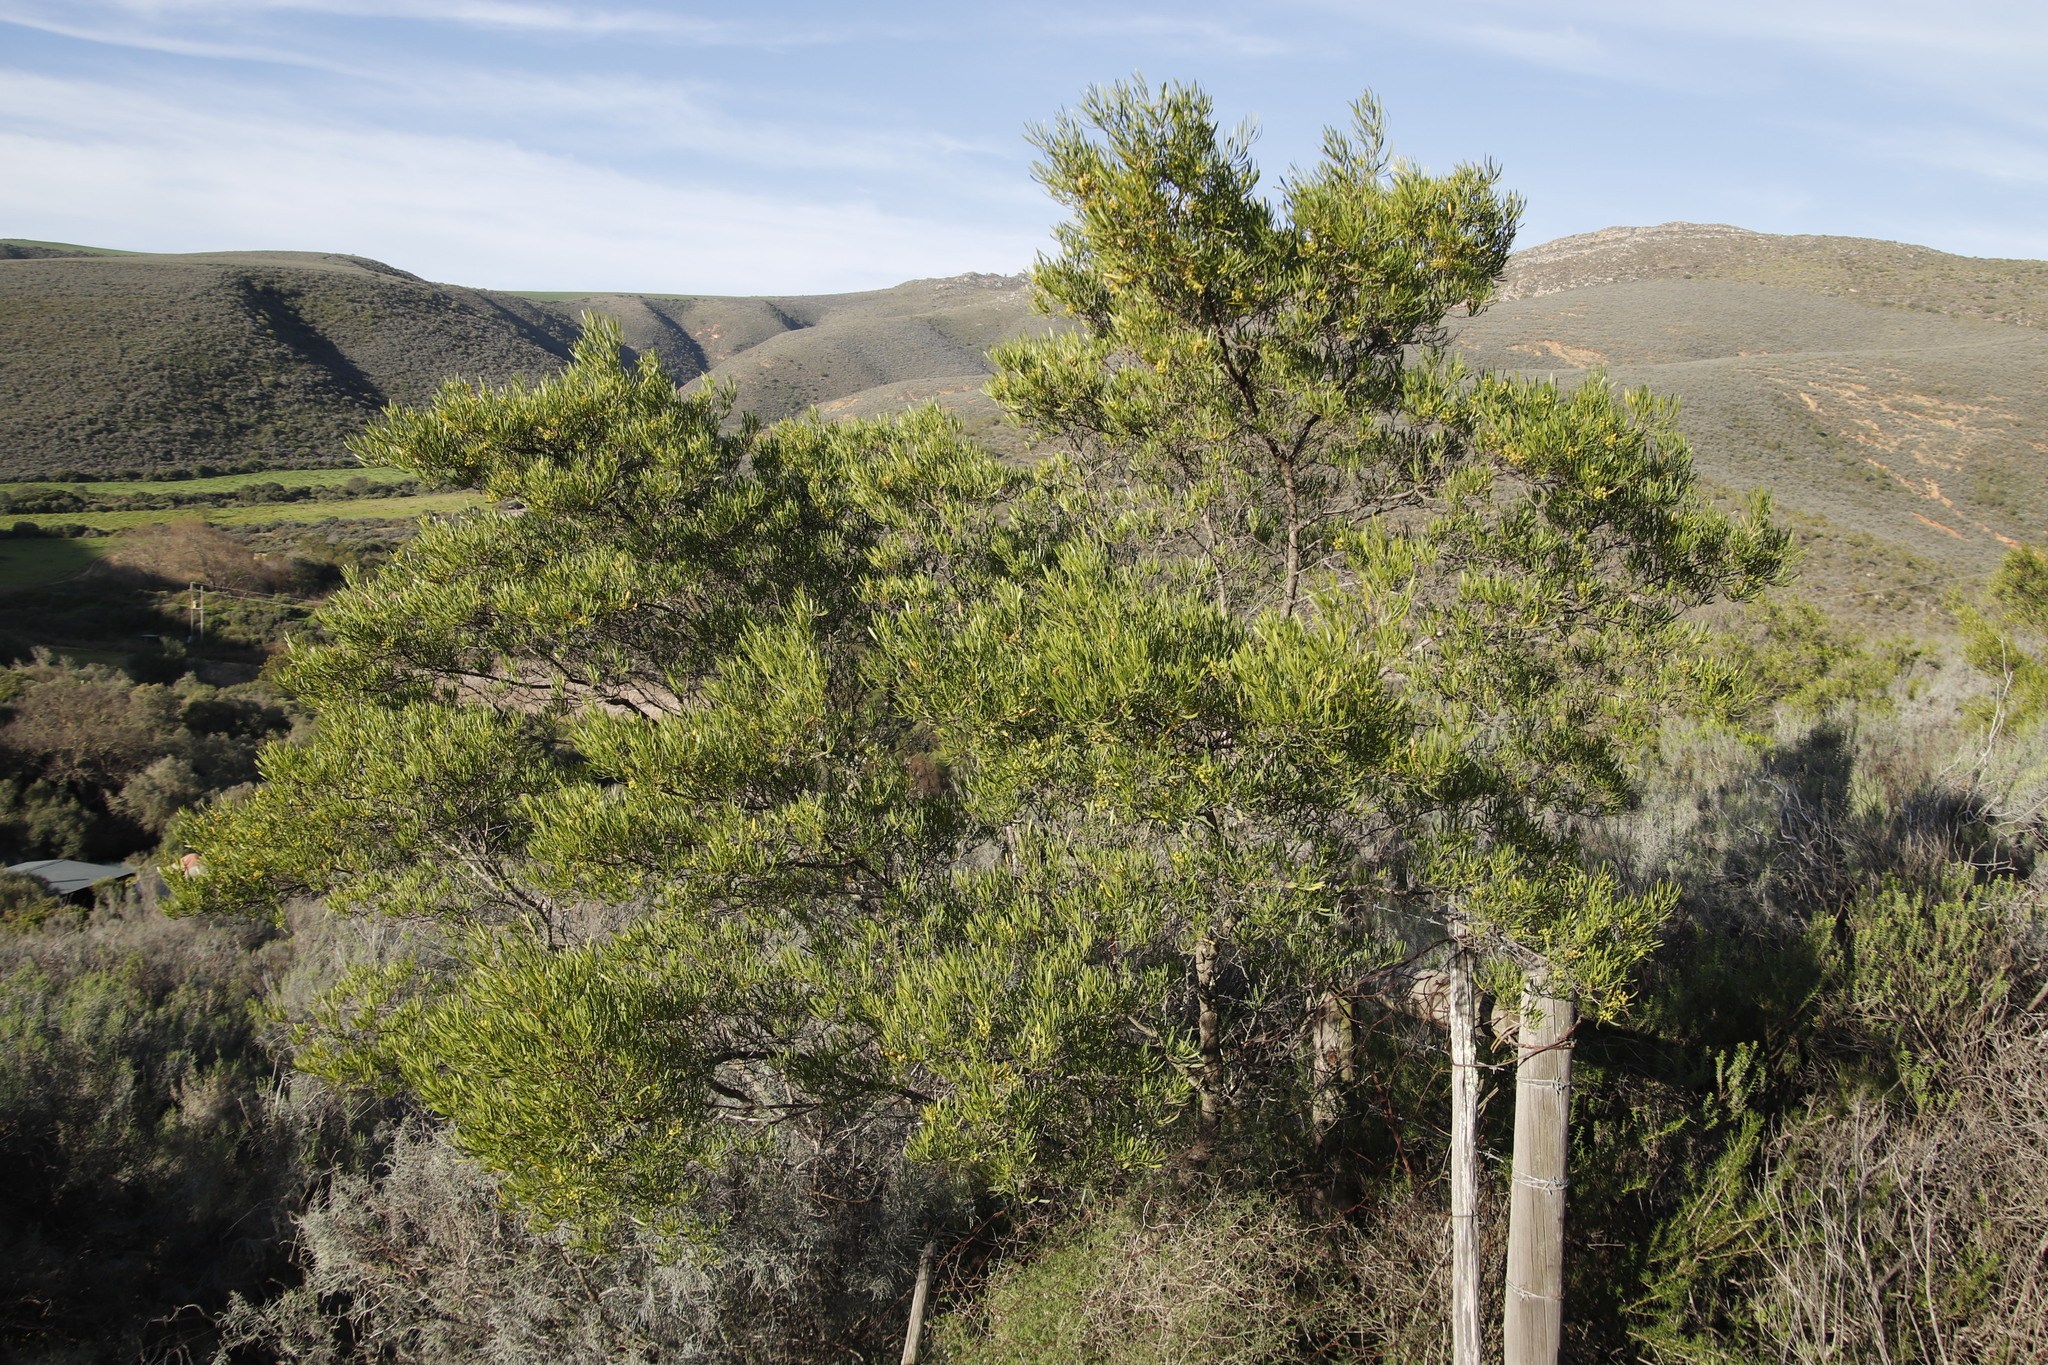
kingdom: Plantae
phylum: Tracheophyta
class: Magnoliopsida
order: Sapindales
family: Sapindaceae
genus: Dodonaea
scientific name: Dodonaea viscosa
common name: Hopbush
